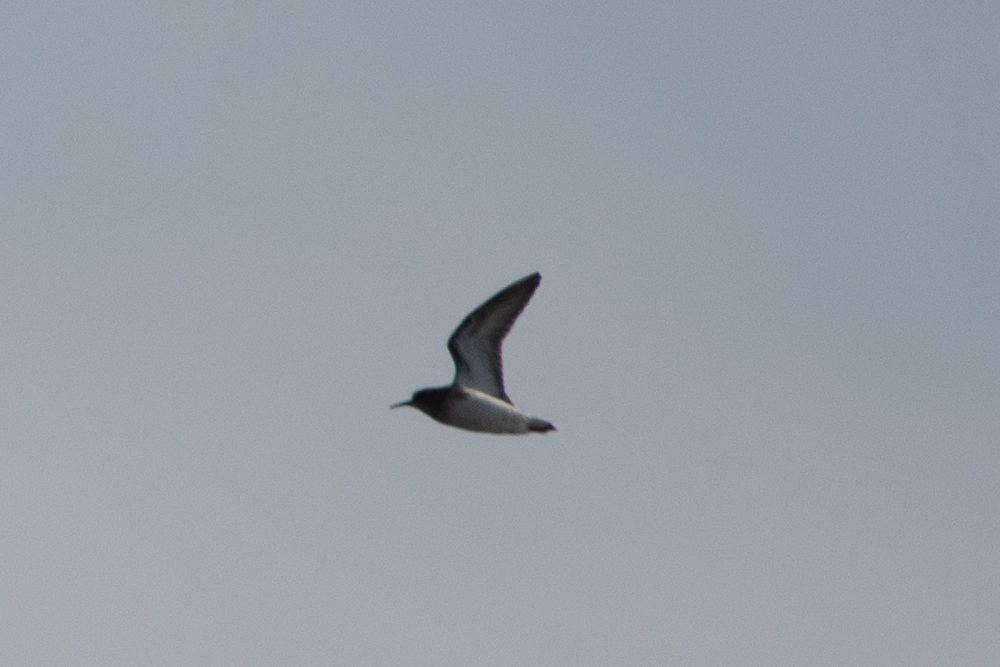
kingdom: Animalia
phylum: Chordata
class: Aves
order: Charadriiformes
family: Scolopacidae
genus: Calidris
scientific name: Calidris minutilla
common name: Least sandpiper
